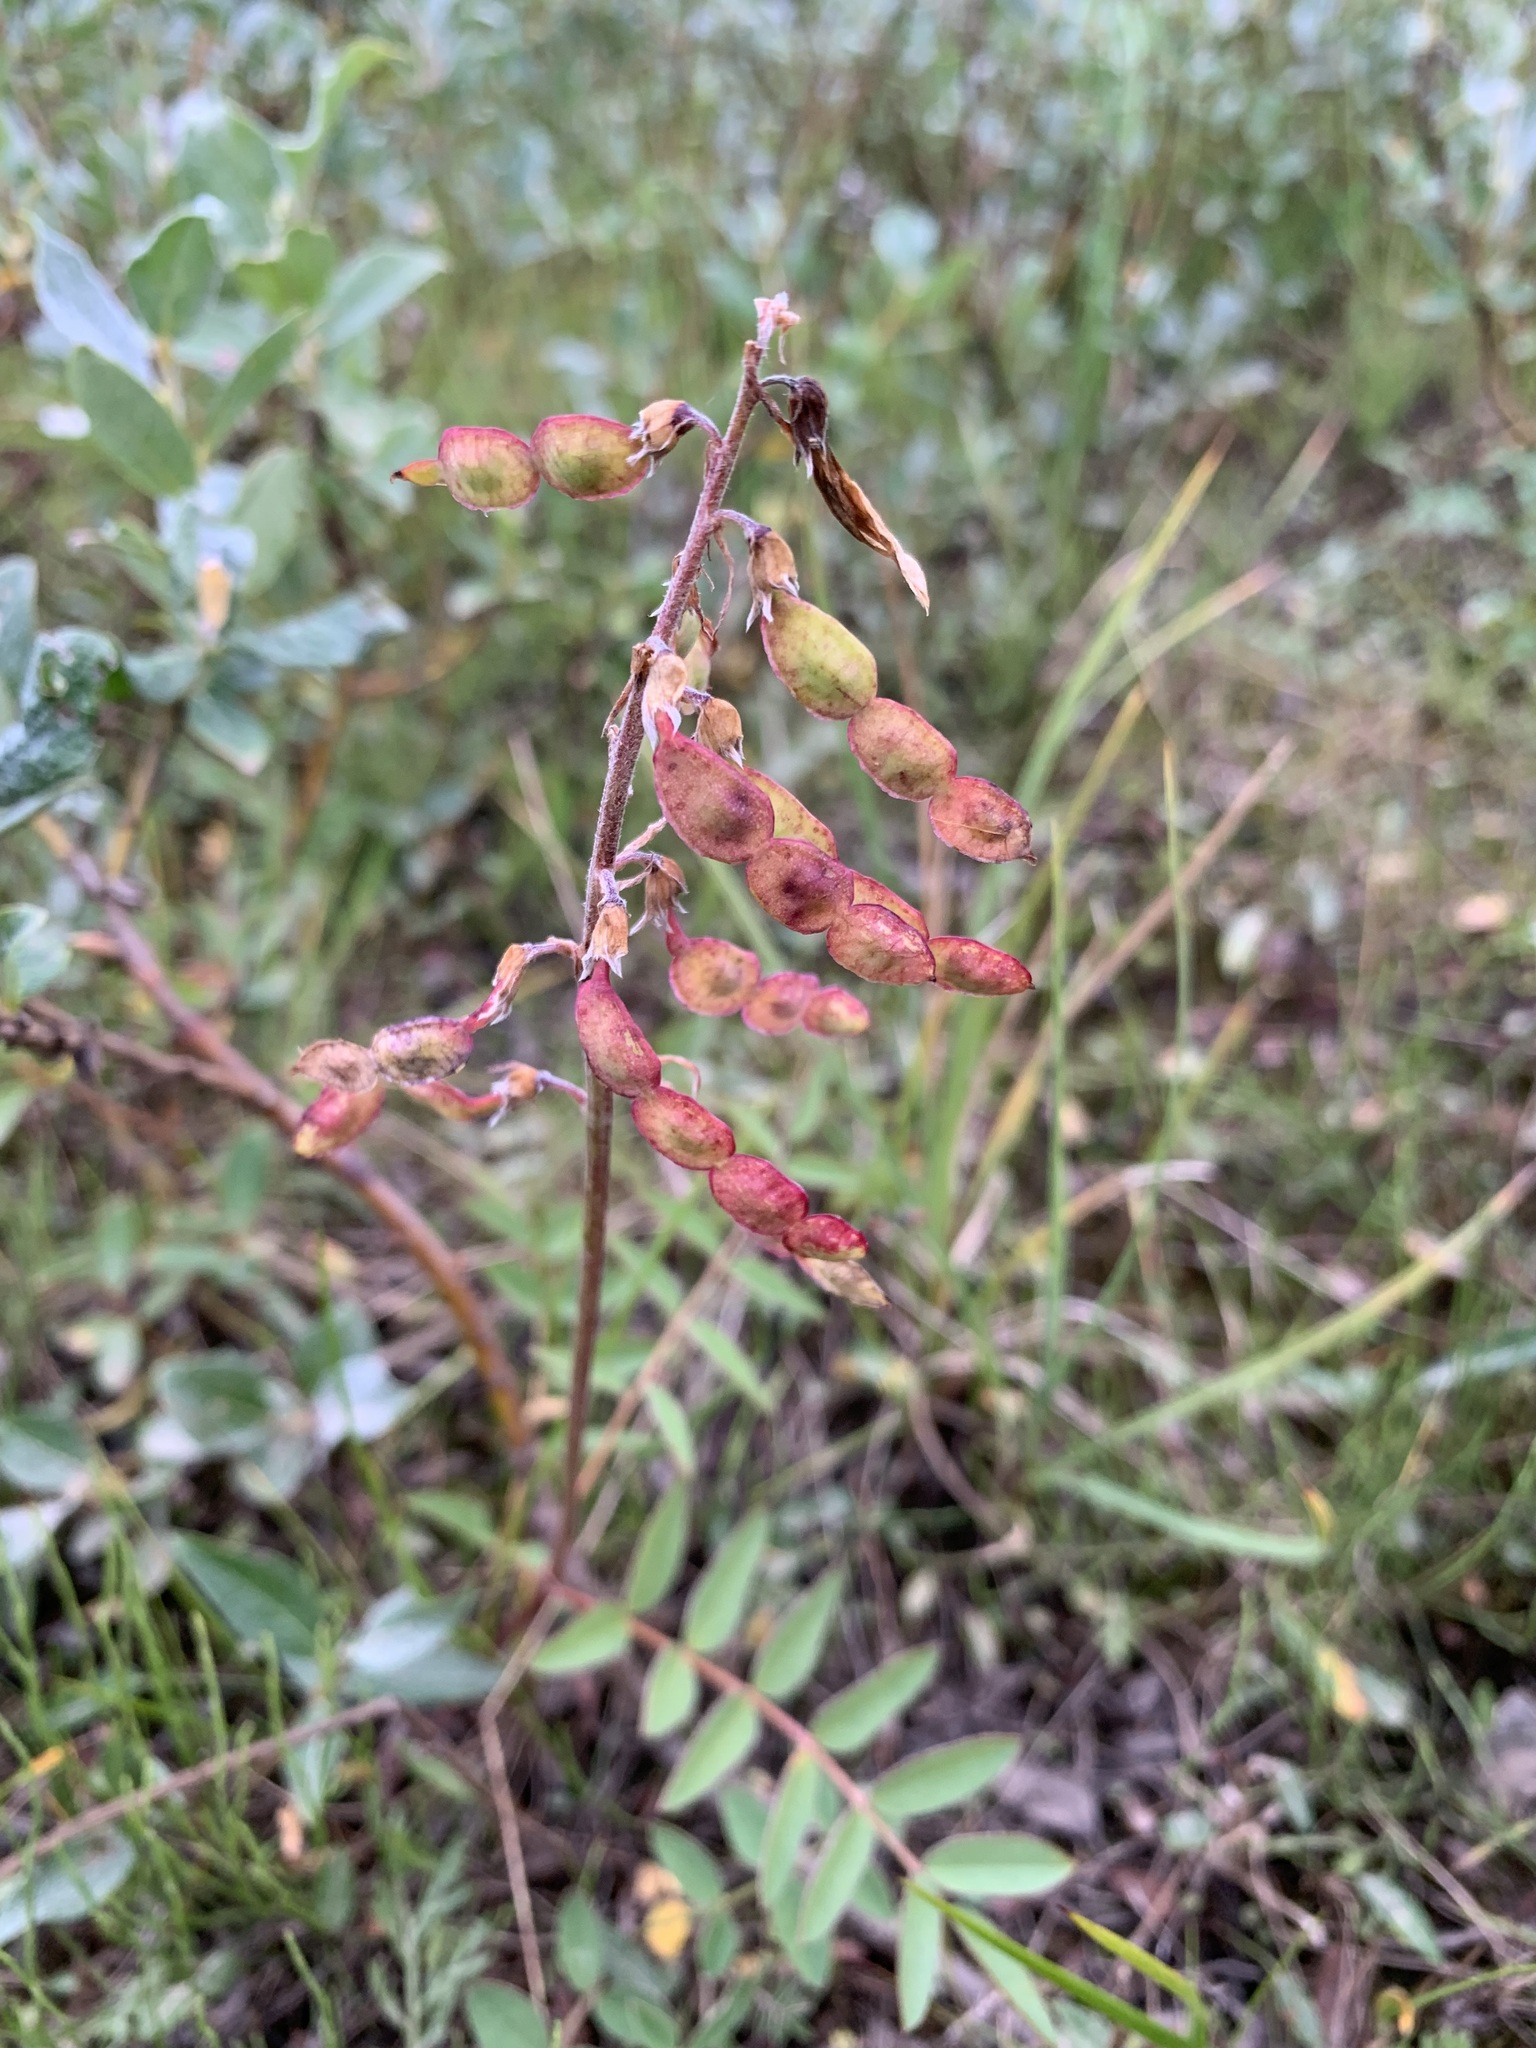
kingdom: Plantae
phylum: Tracheophyta
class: Magnoliopsida
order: Fabales
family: Fabaceae
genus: Hedysarum
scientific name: Hedysarum hedysaroides
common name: Alpine french-honeysuckle
